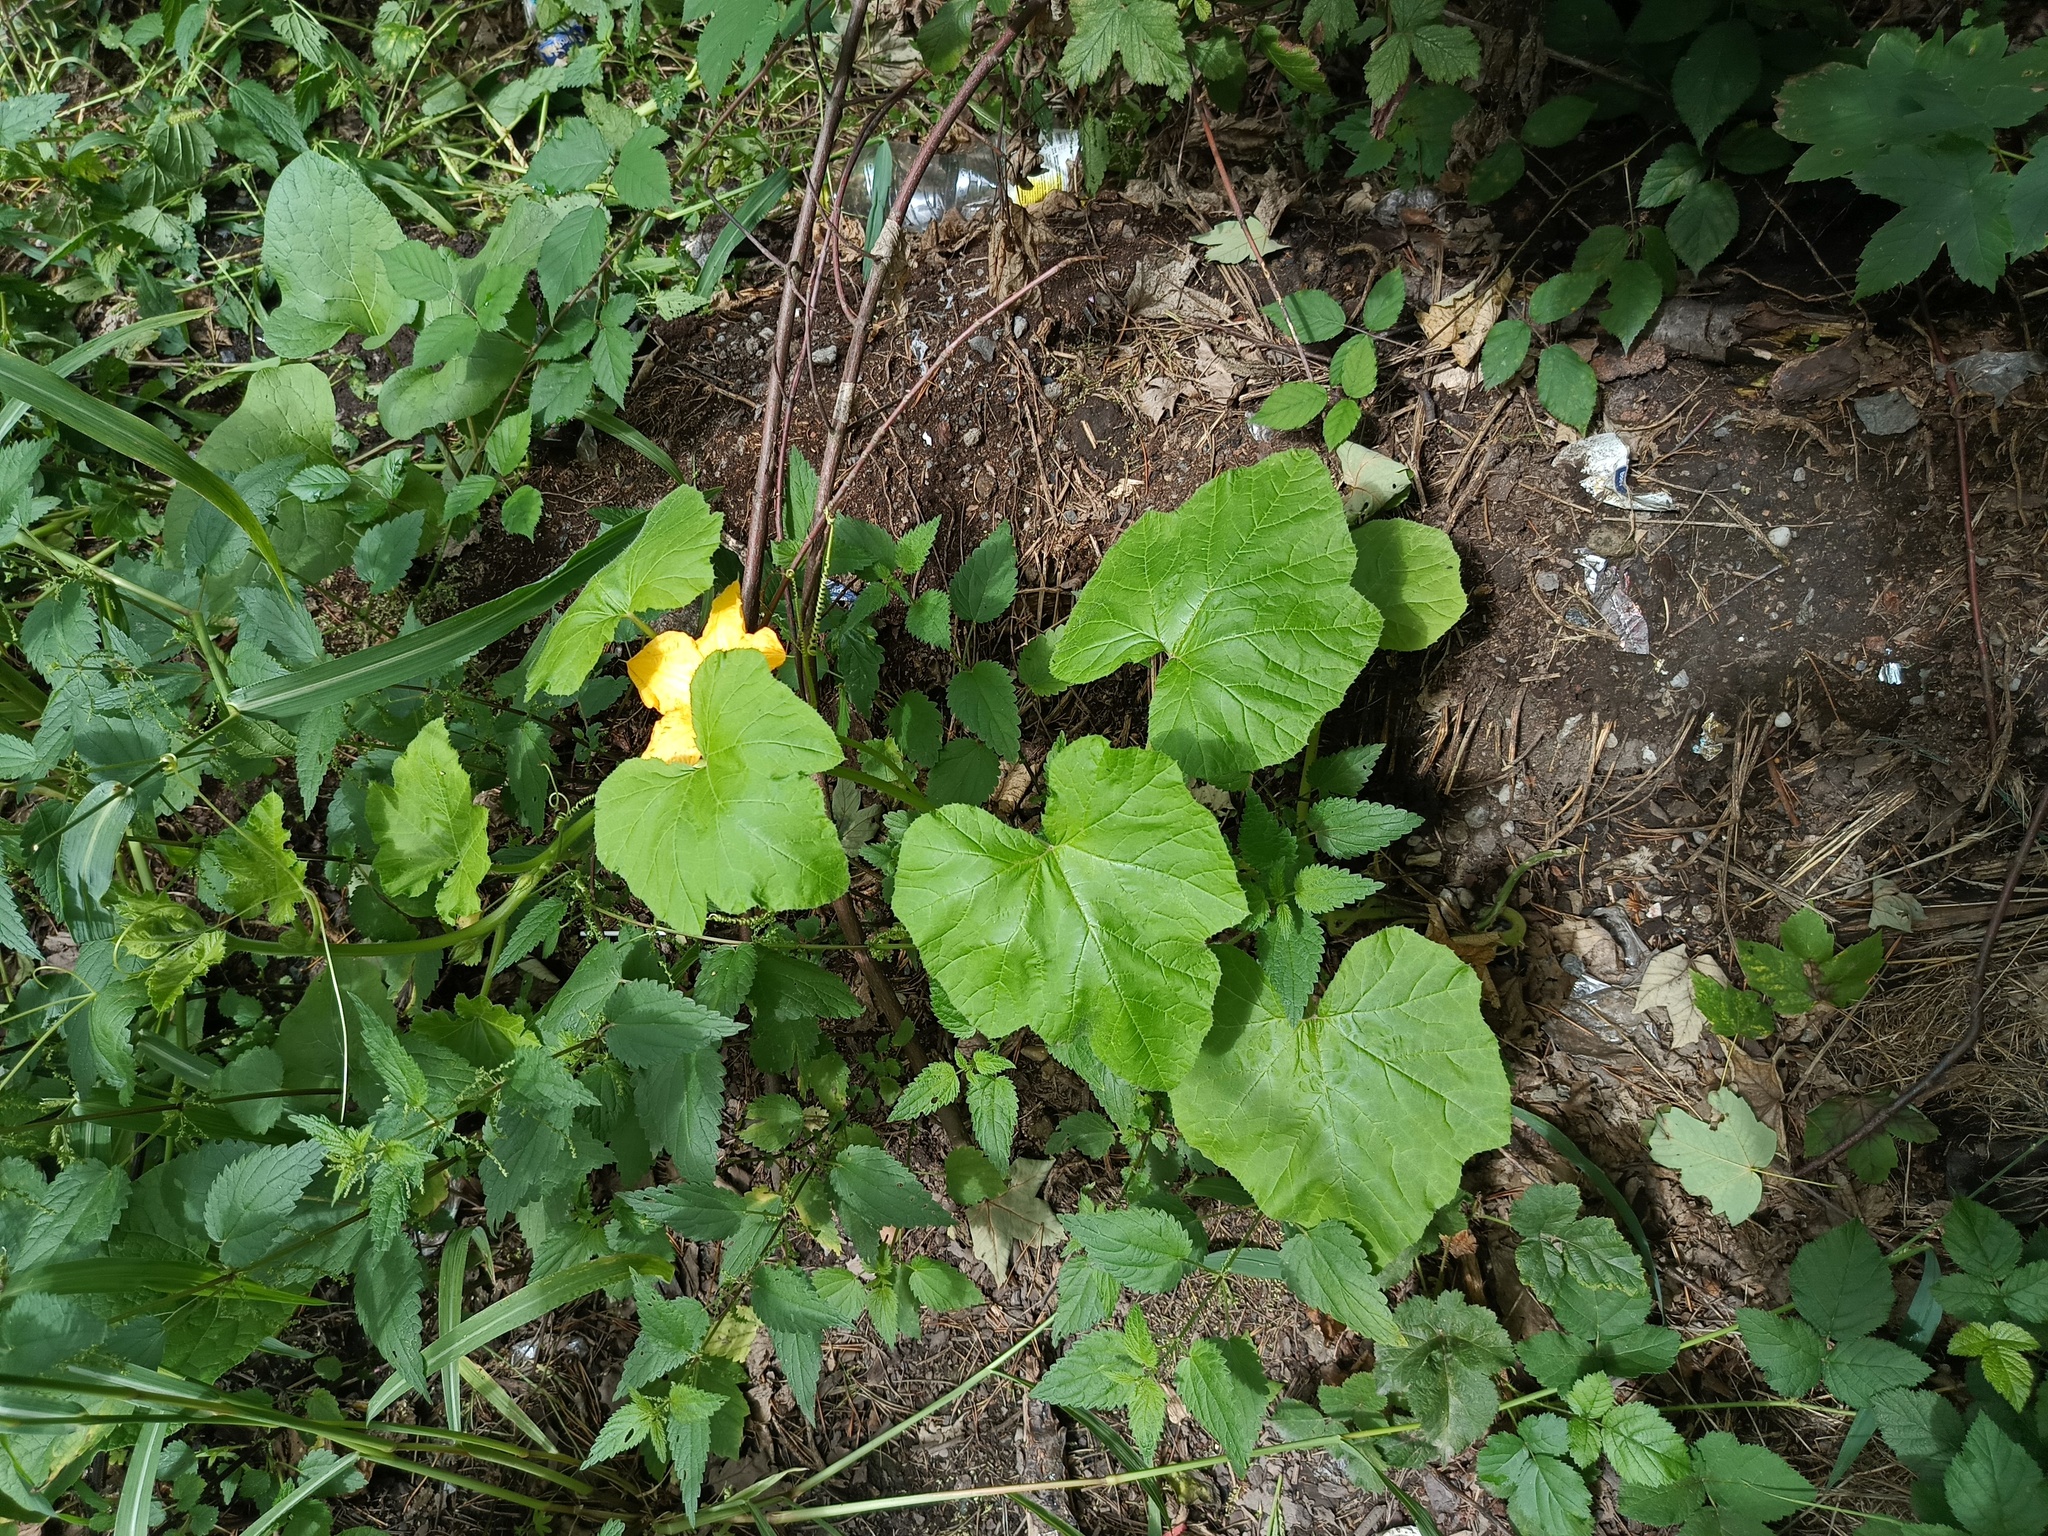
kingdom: Plantae
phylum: Tracheophyta
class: Magnoliopsida
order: Cucurbitales
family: Cucurbitaceae
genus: Cucurbita
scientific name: Cucurbita pepo
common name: Marrow
